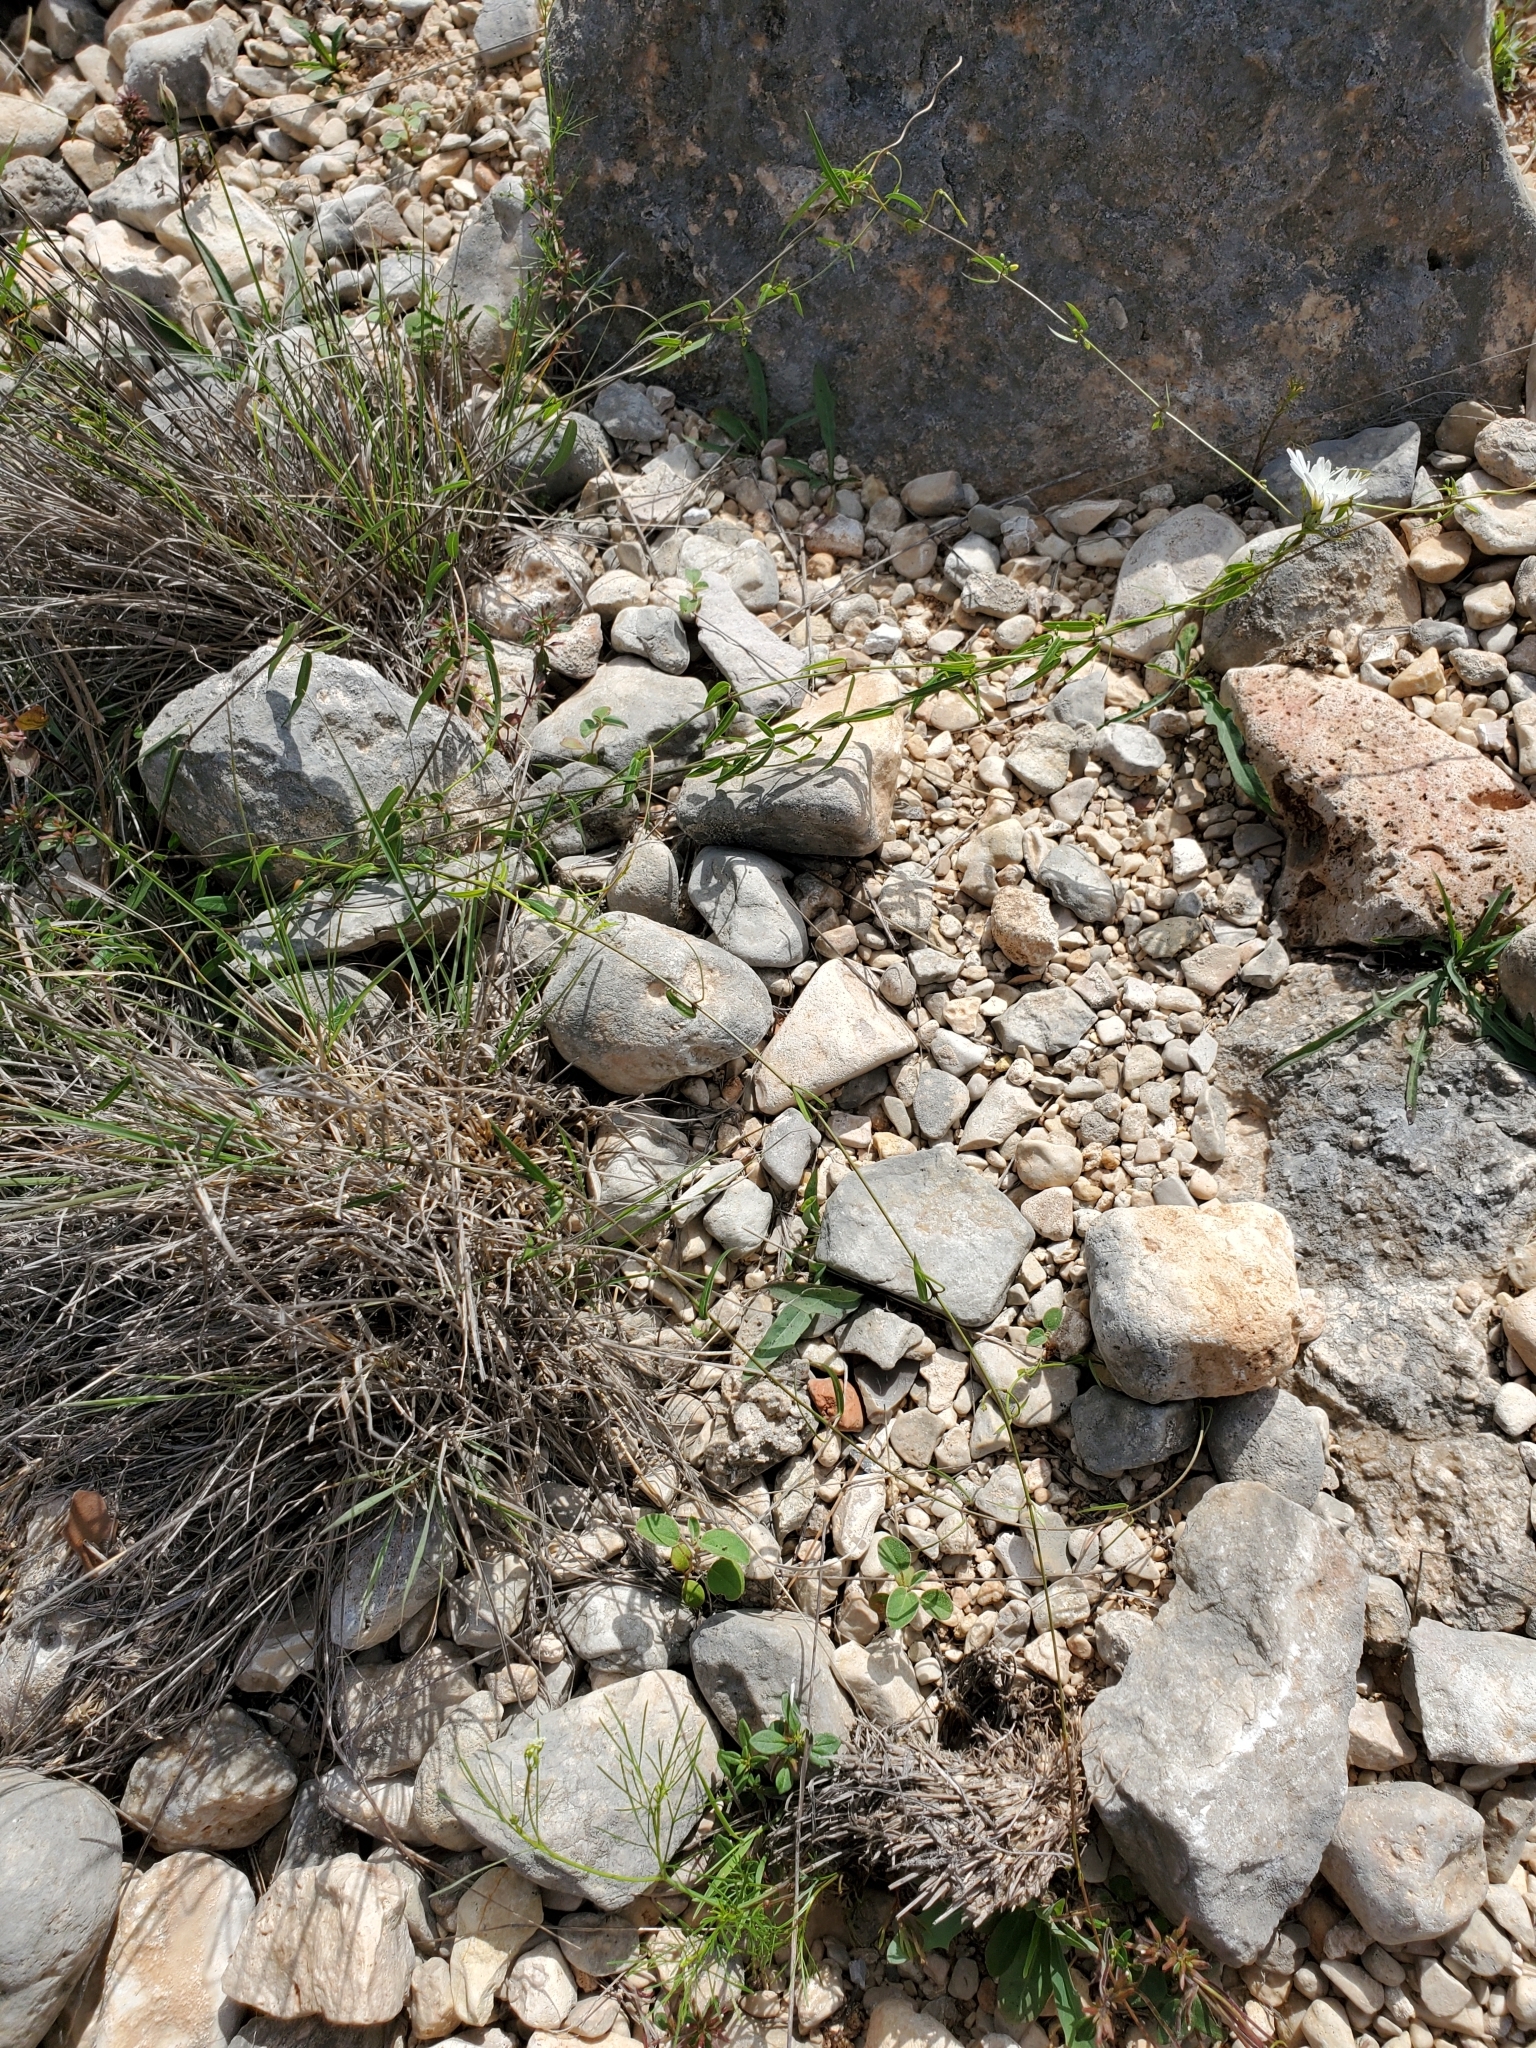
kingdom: Plantae
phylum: Tracheophyta
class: Magnoliopsida
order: Gentianales
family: Apocynaceae
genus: Metastelma
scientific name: Metastelma palmeri
